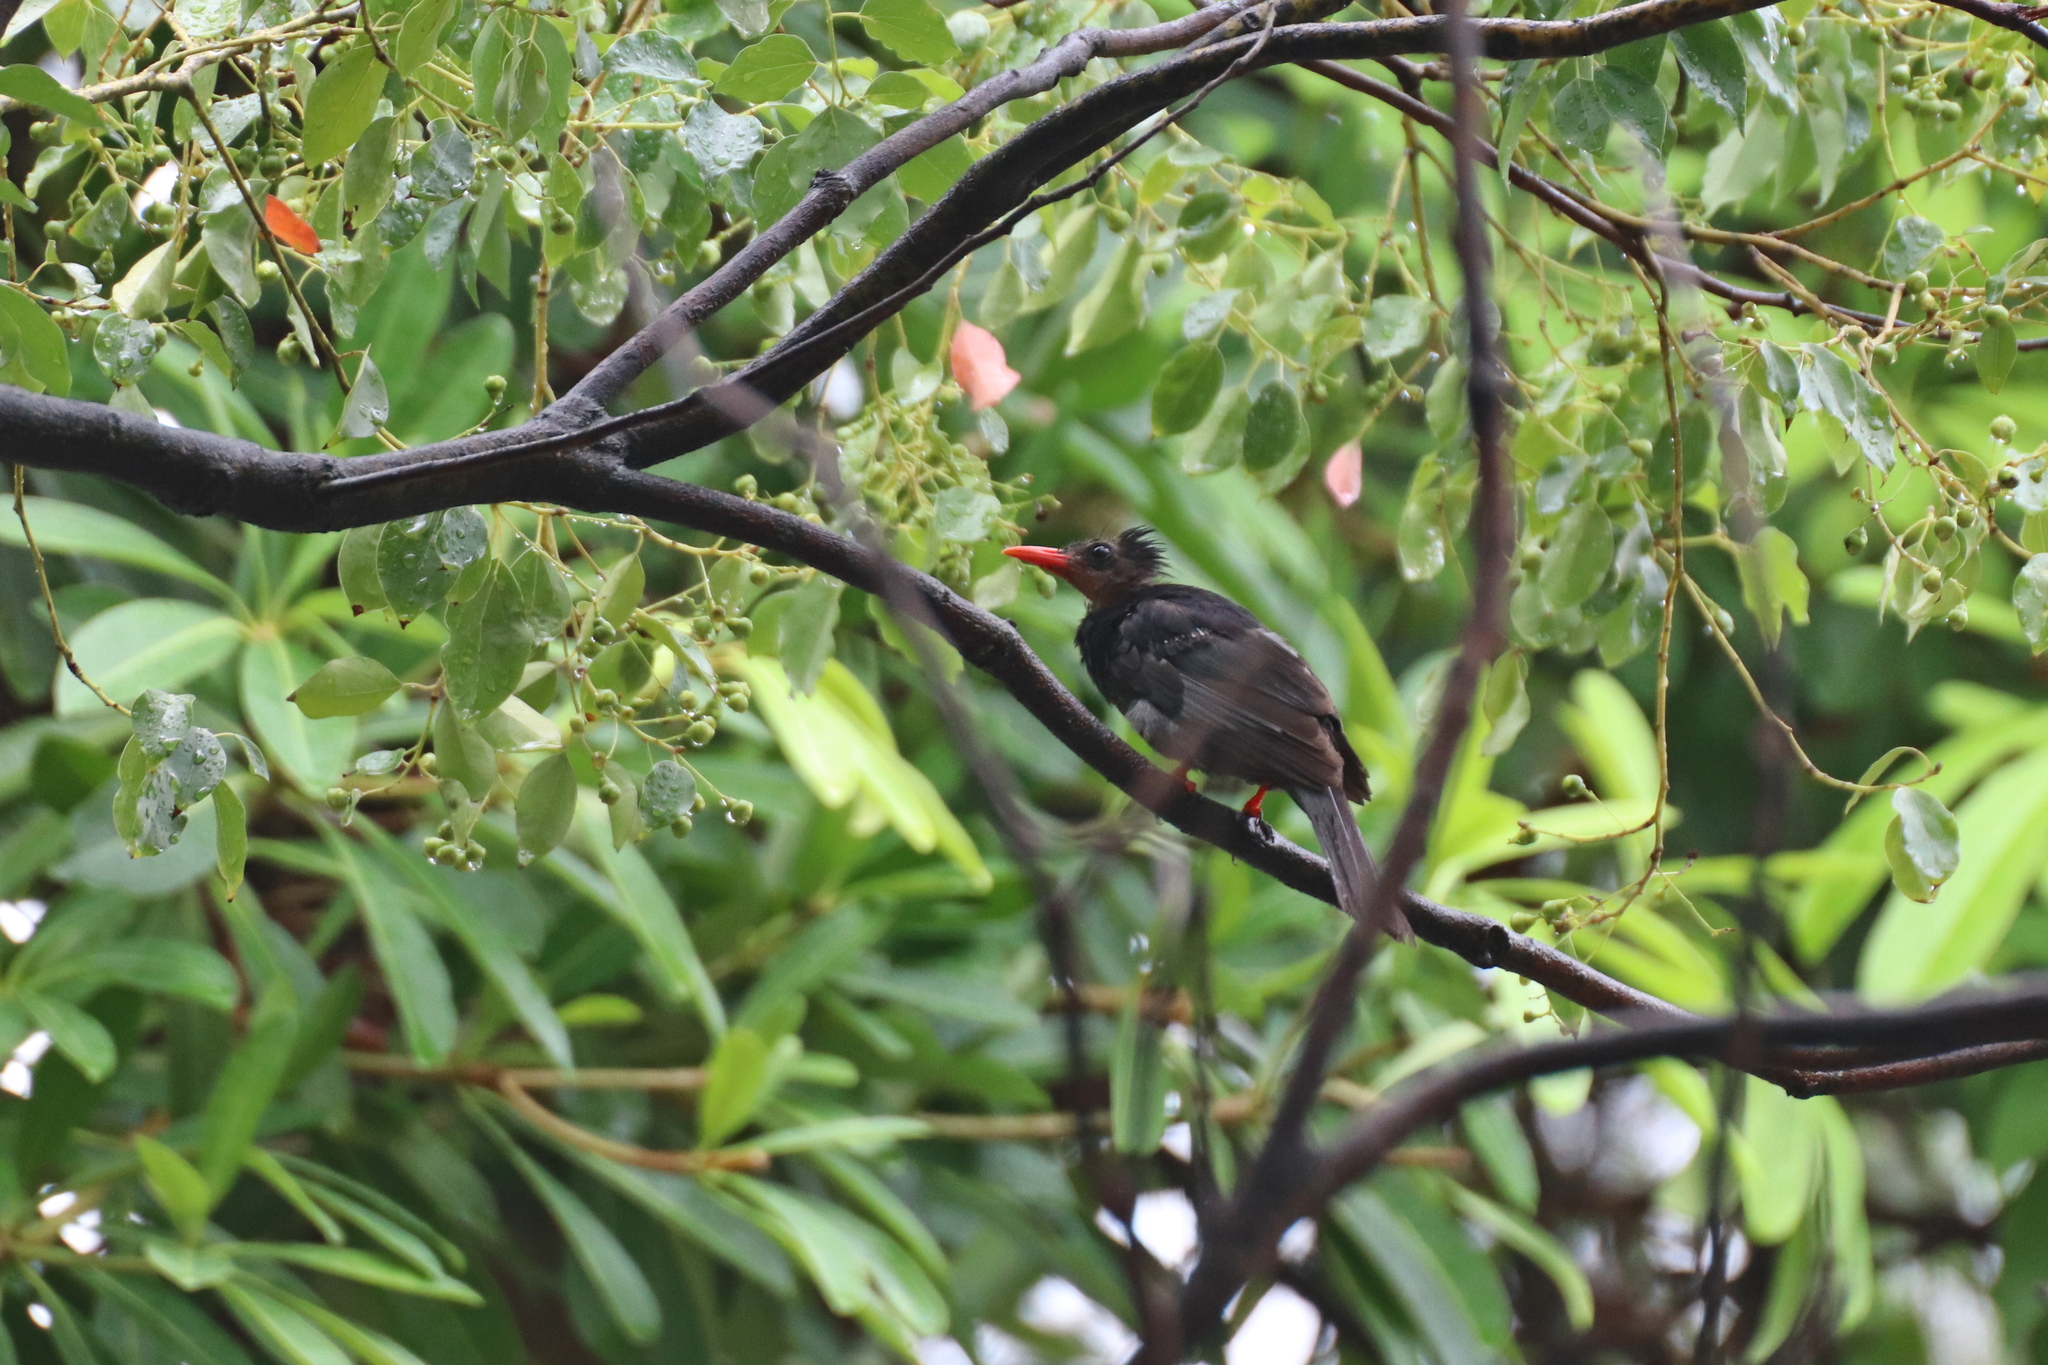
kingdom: Animalia
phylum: Chordata
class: Aves
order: Passeriformes
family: Pycnonotidae
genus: Hypsipetes
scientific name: Hypsipetes leucocephalus
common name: Black bulbul
